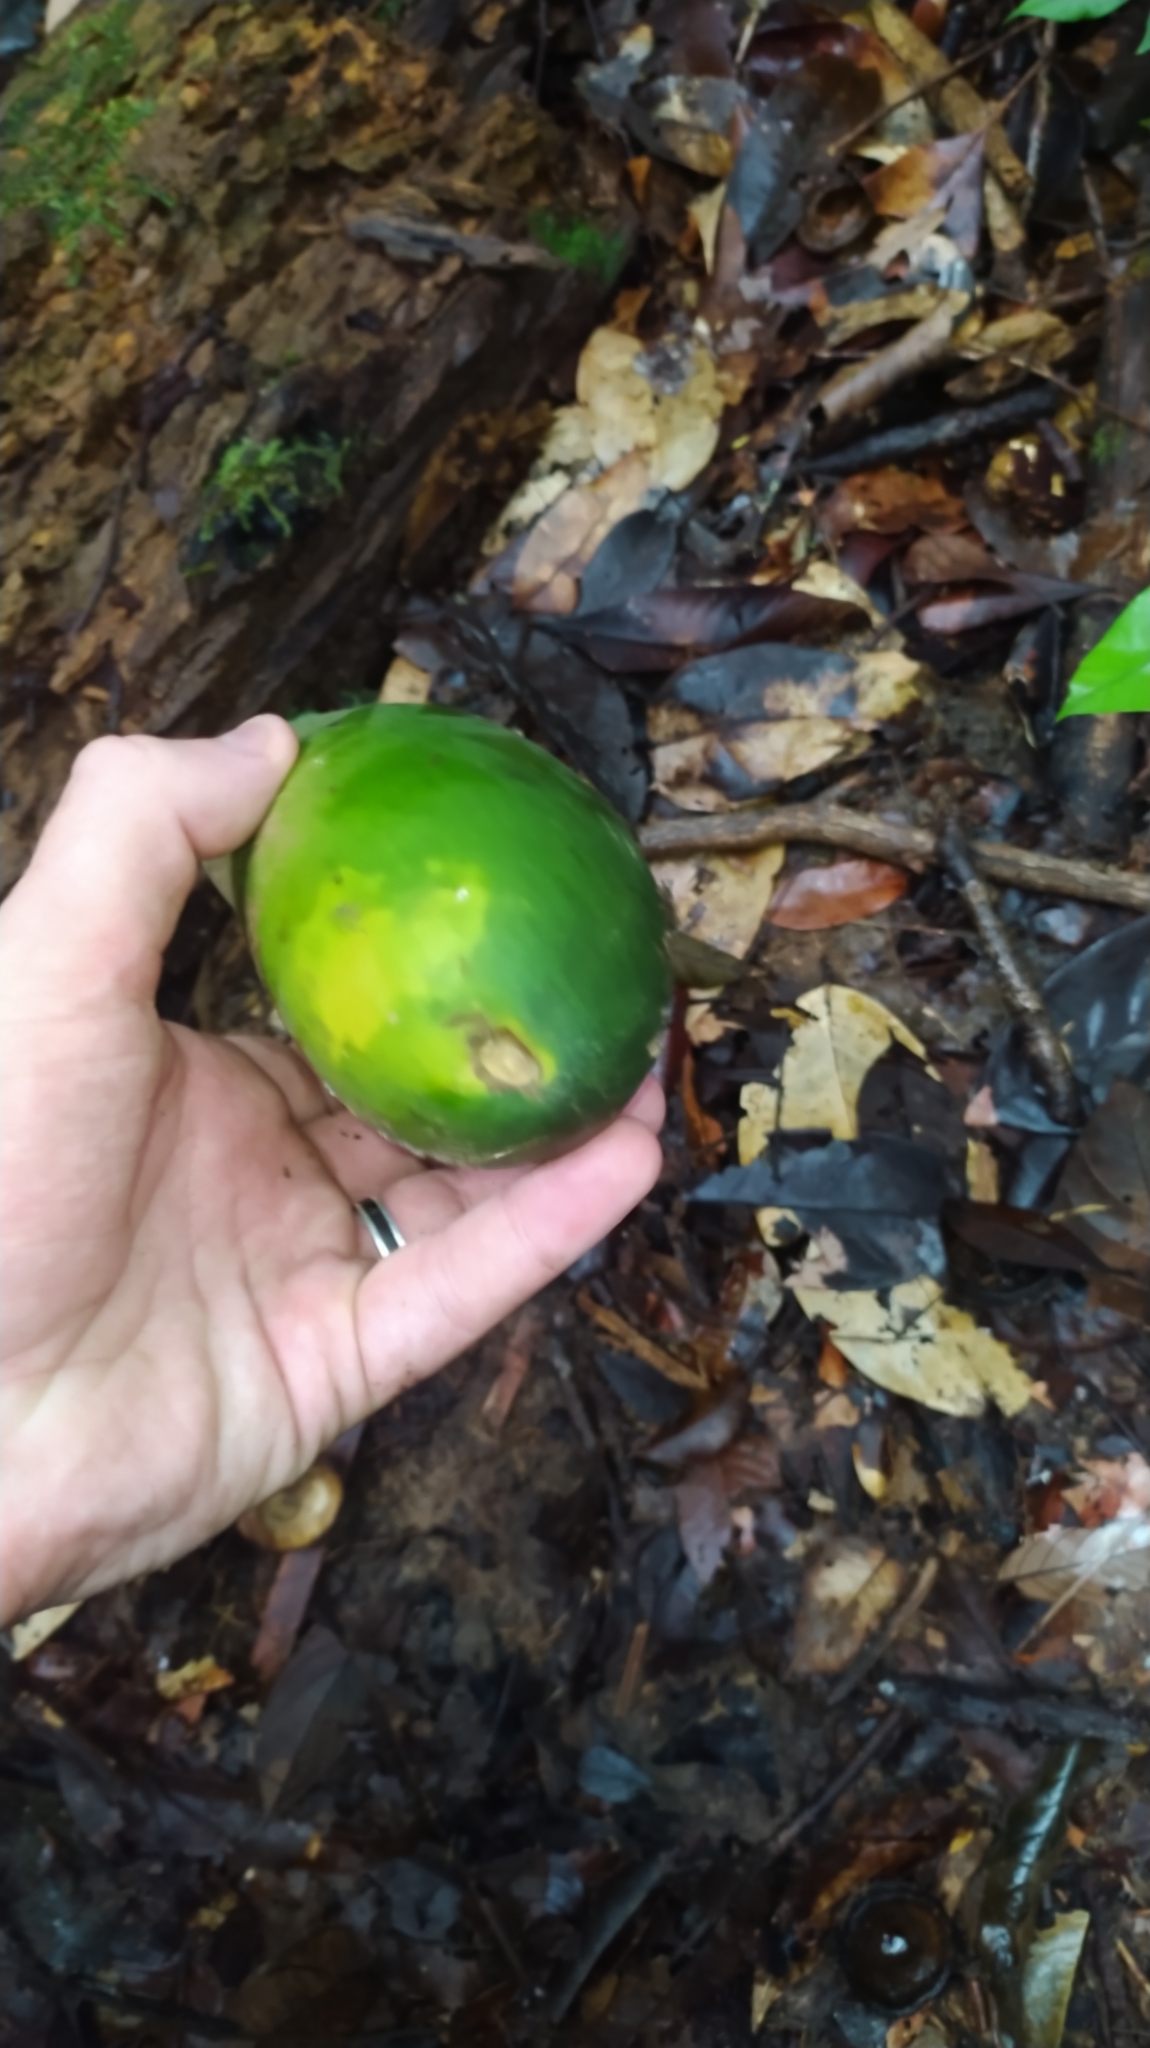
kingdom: Plantae
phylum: Tracheophyta
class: Magnoliopsida
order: Gentianales
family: Apocynaceae
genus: Geissospermum
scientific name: Geissospermum laeve
